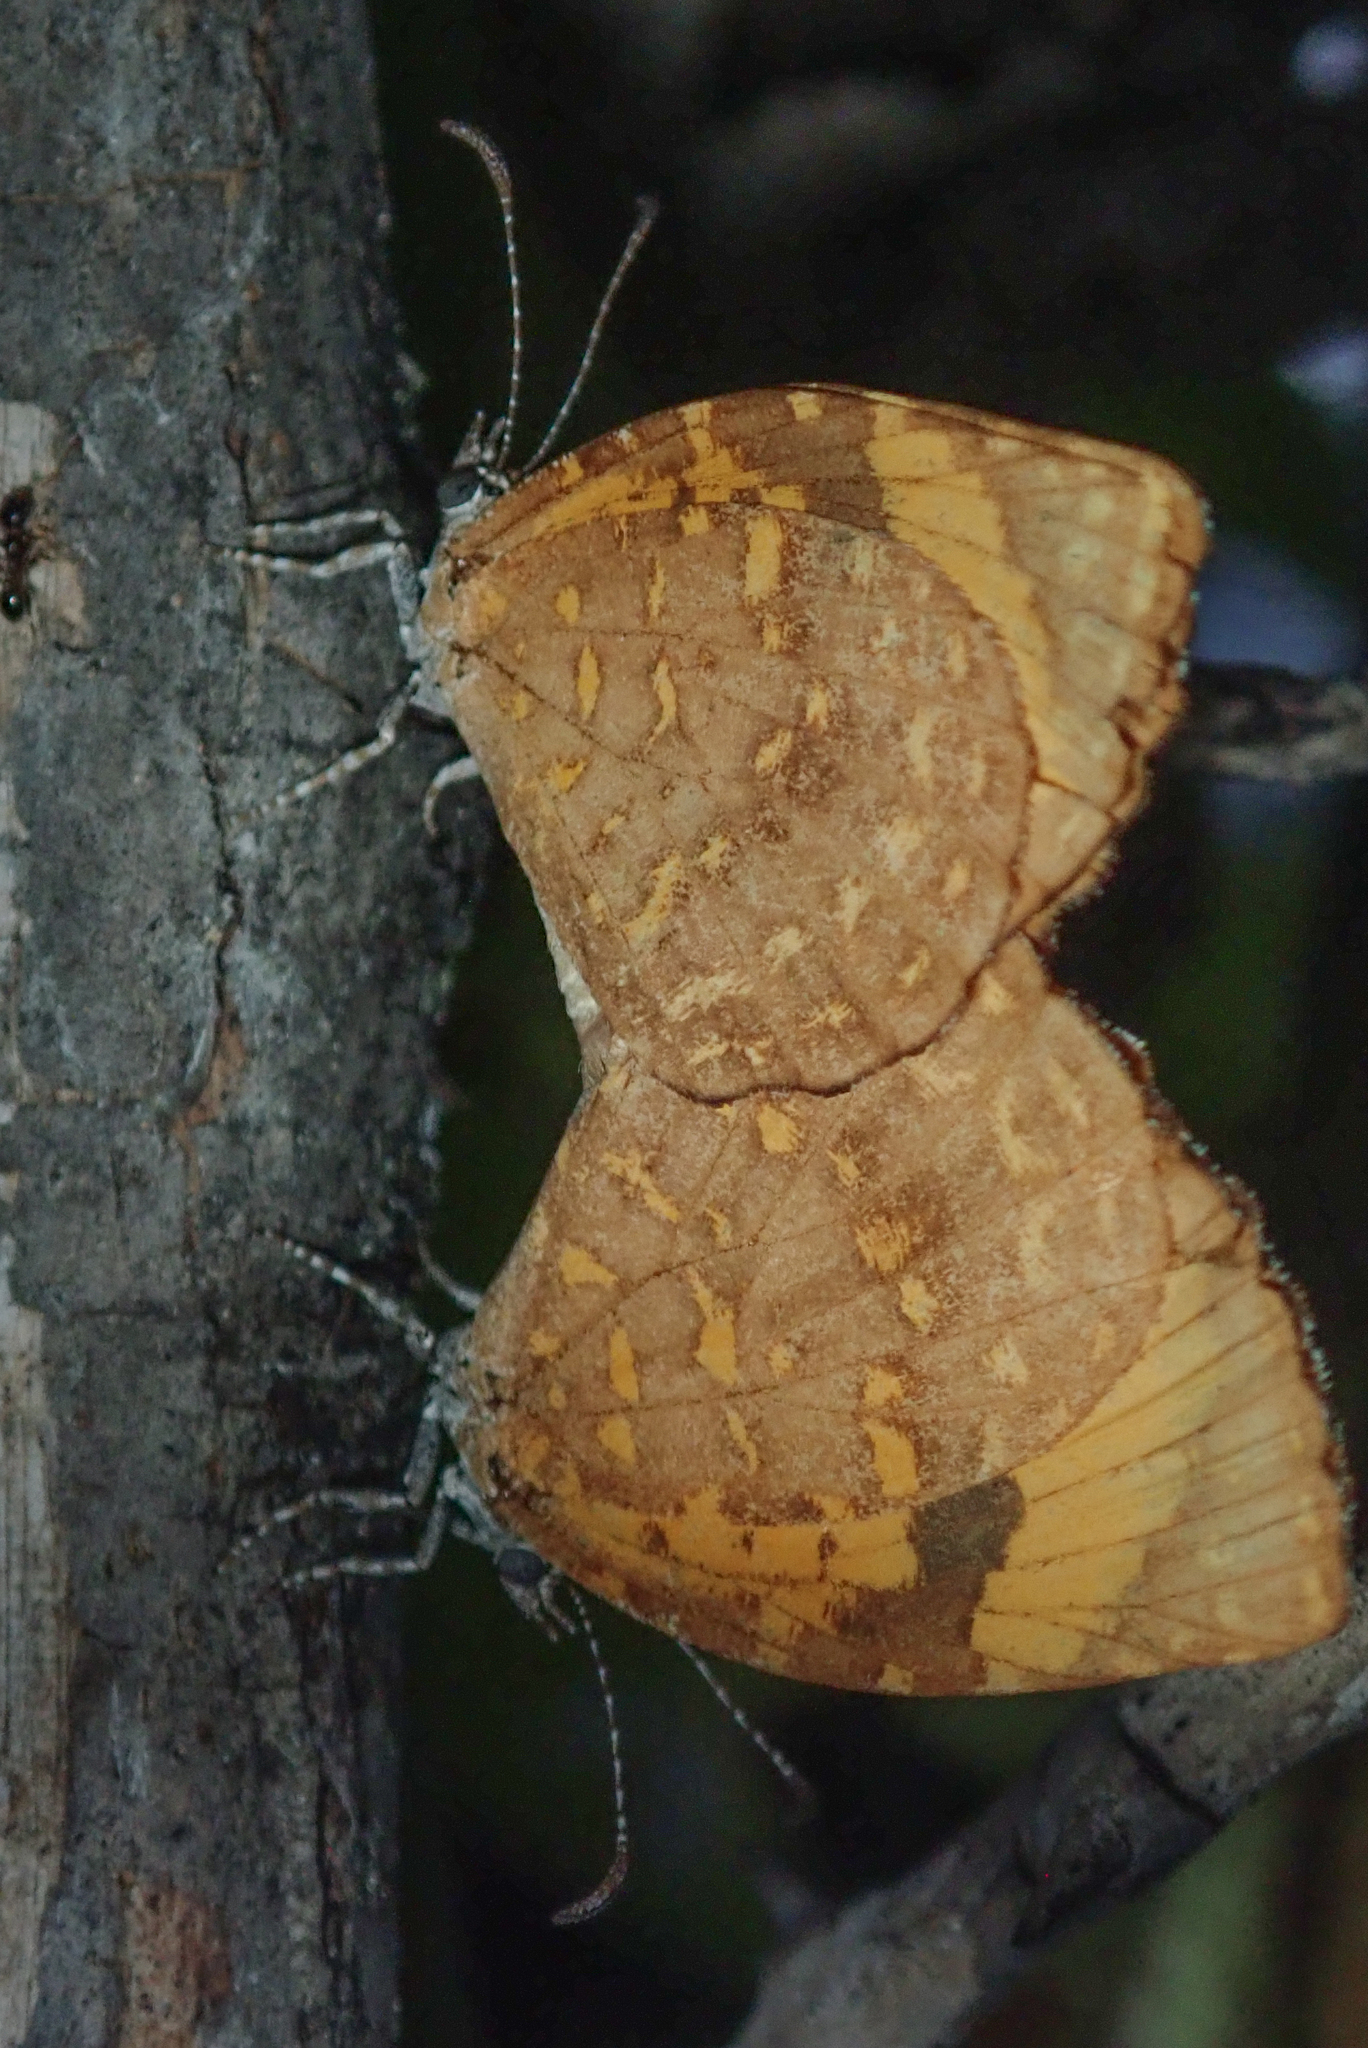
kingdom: Animalia
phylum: Arthropoda
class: Insecta
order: Lepidoptera
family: Lycaenidae
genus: Cnodontes
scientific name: Cnodontes pallida
